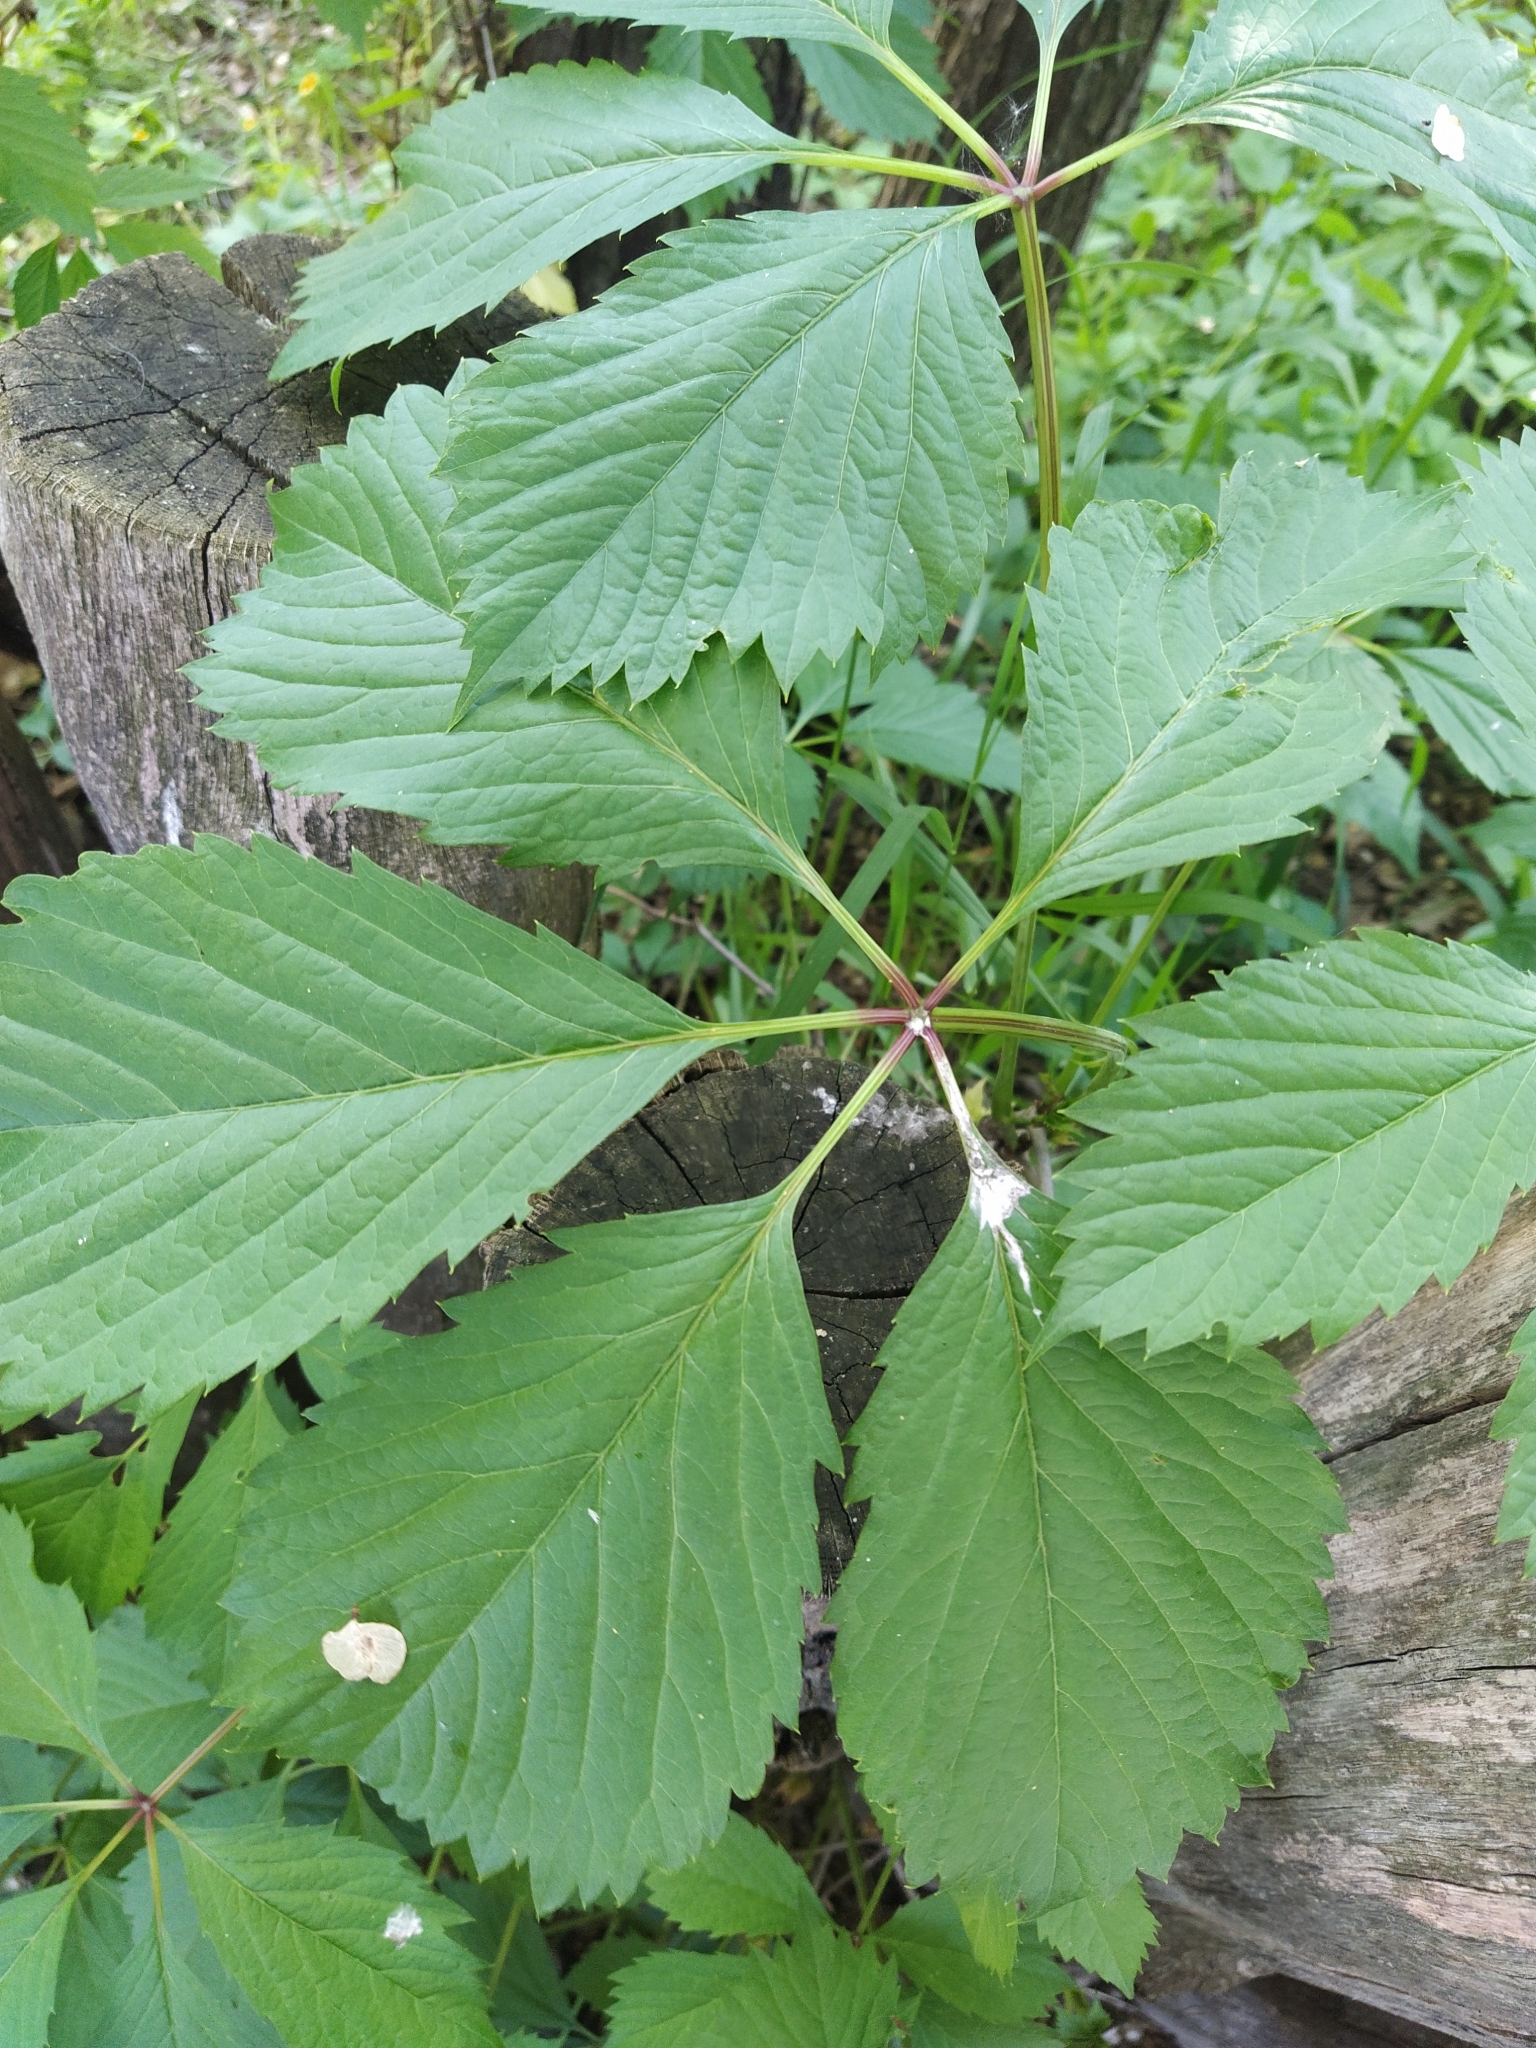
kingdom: Plantae
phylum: Tracheophyta
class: Magnoliopsida
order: Vitales
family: Vitaceae
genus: Parthenocissus
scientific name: Parthenocissus inserta
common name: False virginia-creeper
